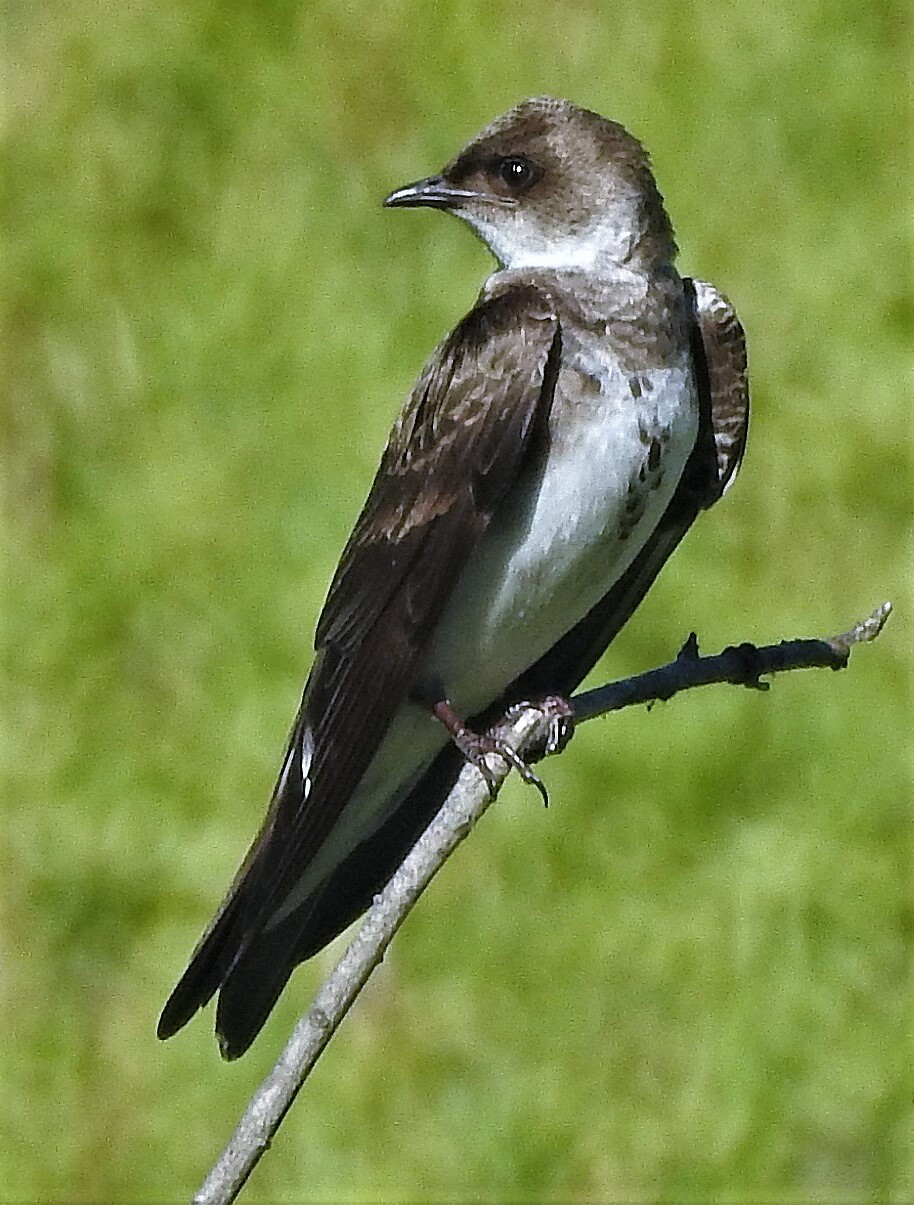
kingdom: Animalia
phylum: Chordata
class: Aves
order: Passeriformes
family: Hirundinidae
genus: Progne
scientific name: Progne tapera
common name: Brown-chested martin
